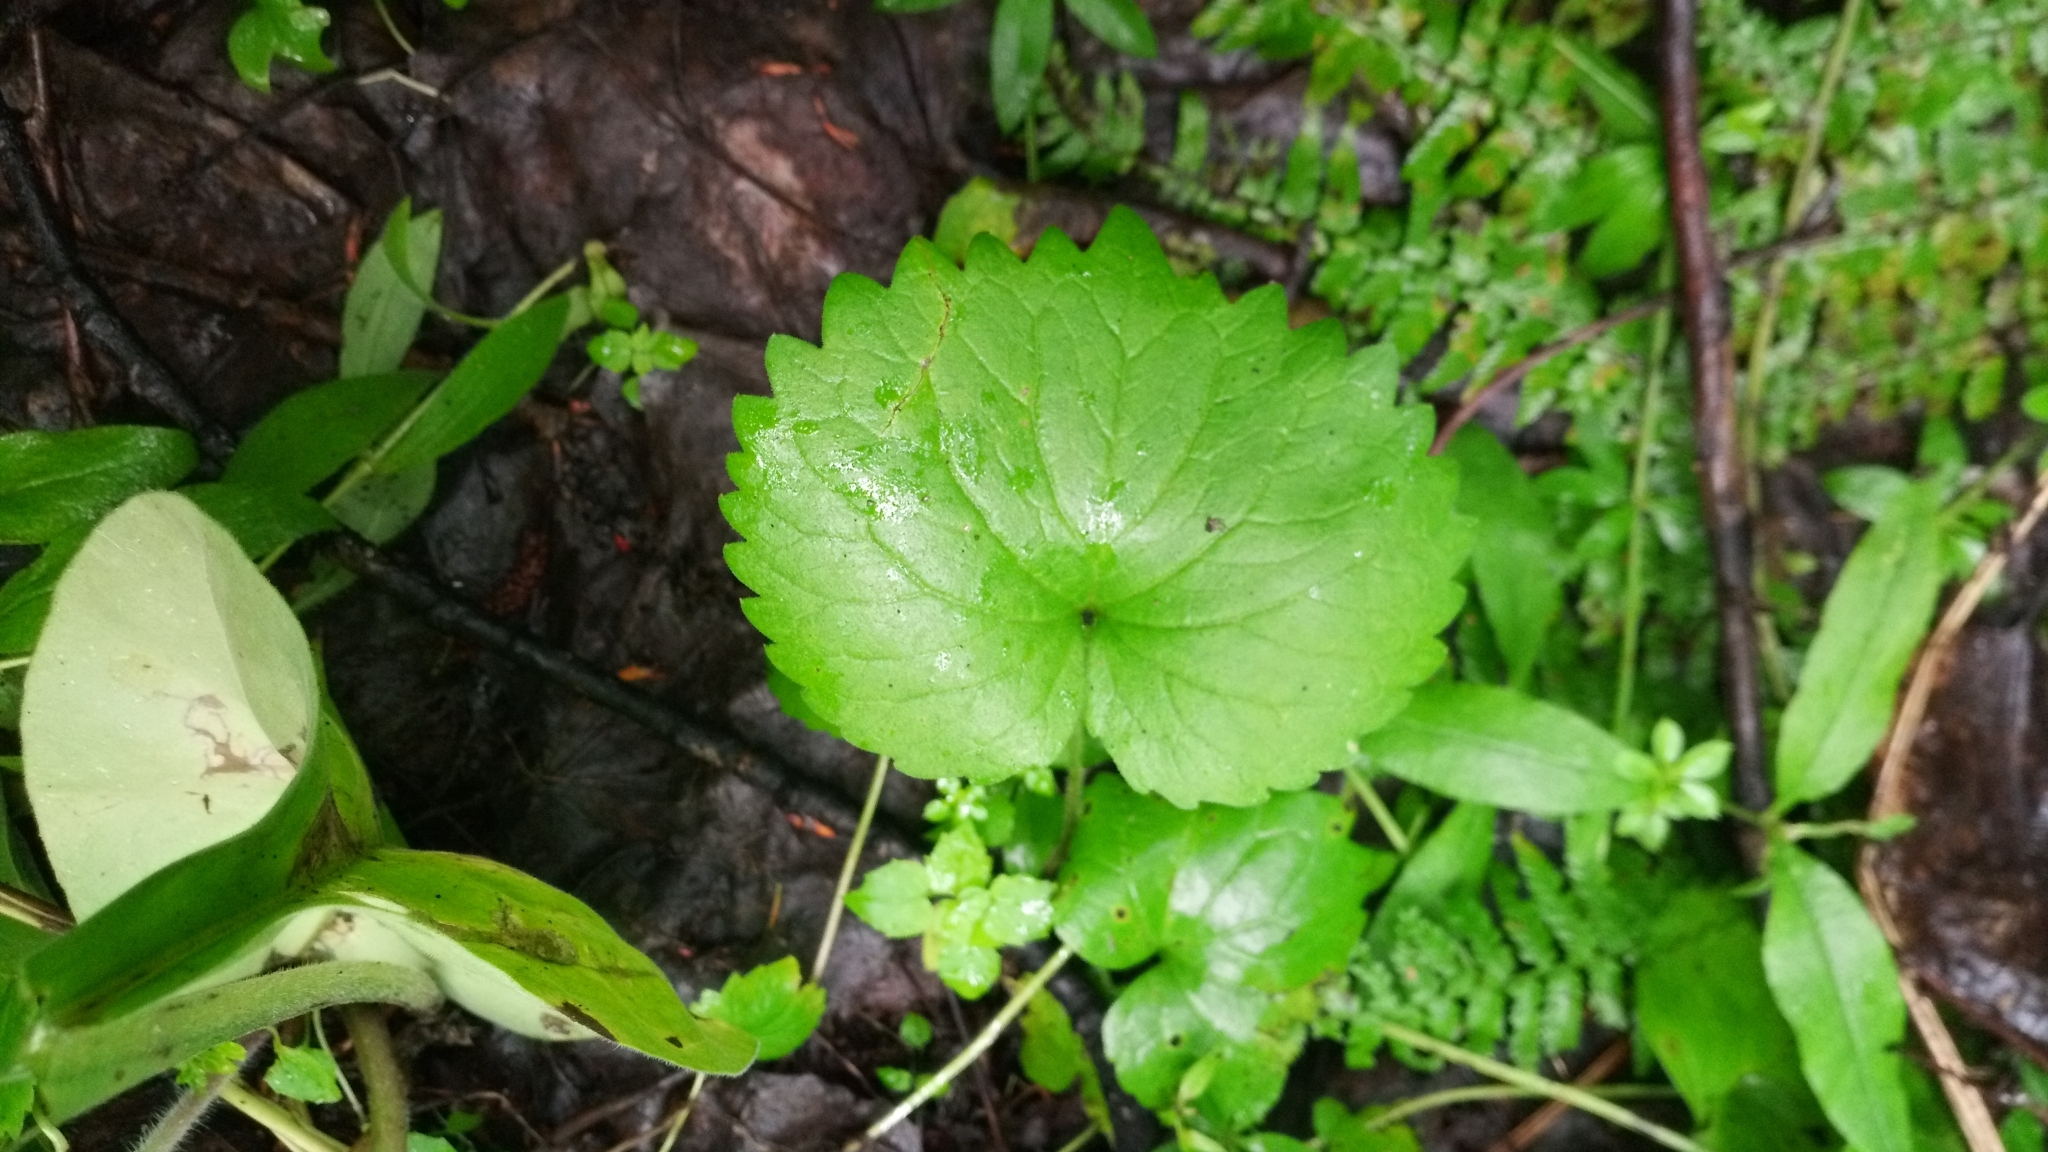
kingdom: Plantae
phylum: Tracheophyta
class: Magnoliopsida
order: Malpighiales
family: Violaceae
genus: Viola
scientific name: Viola uniflora
